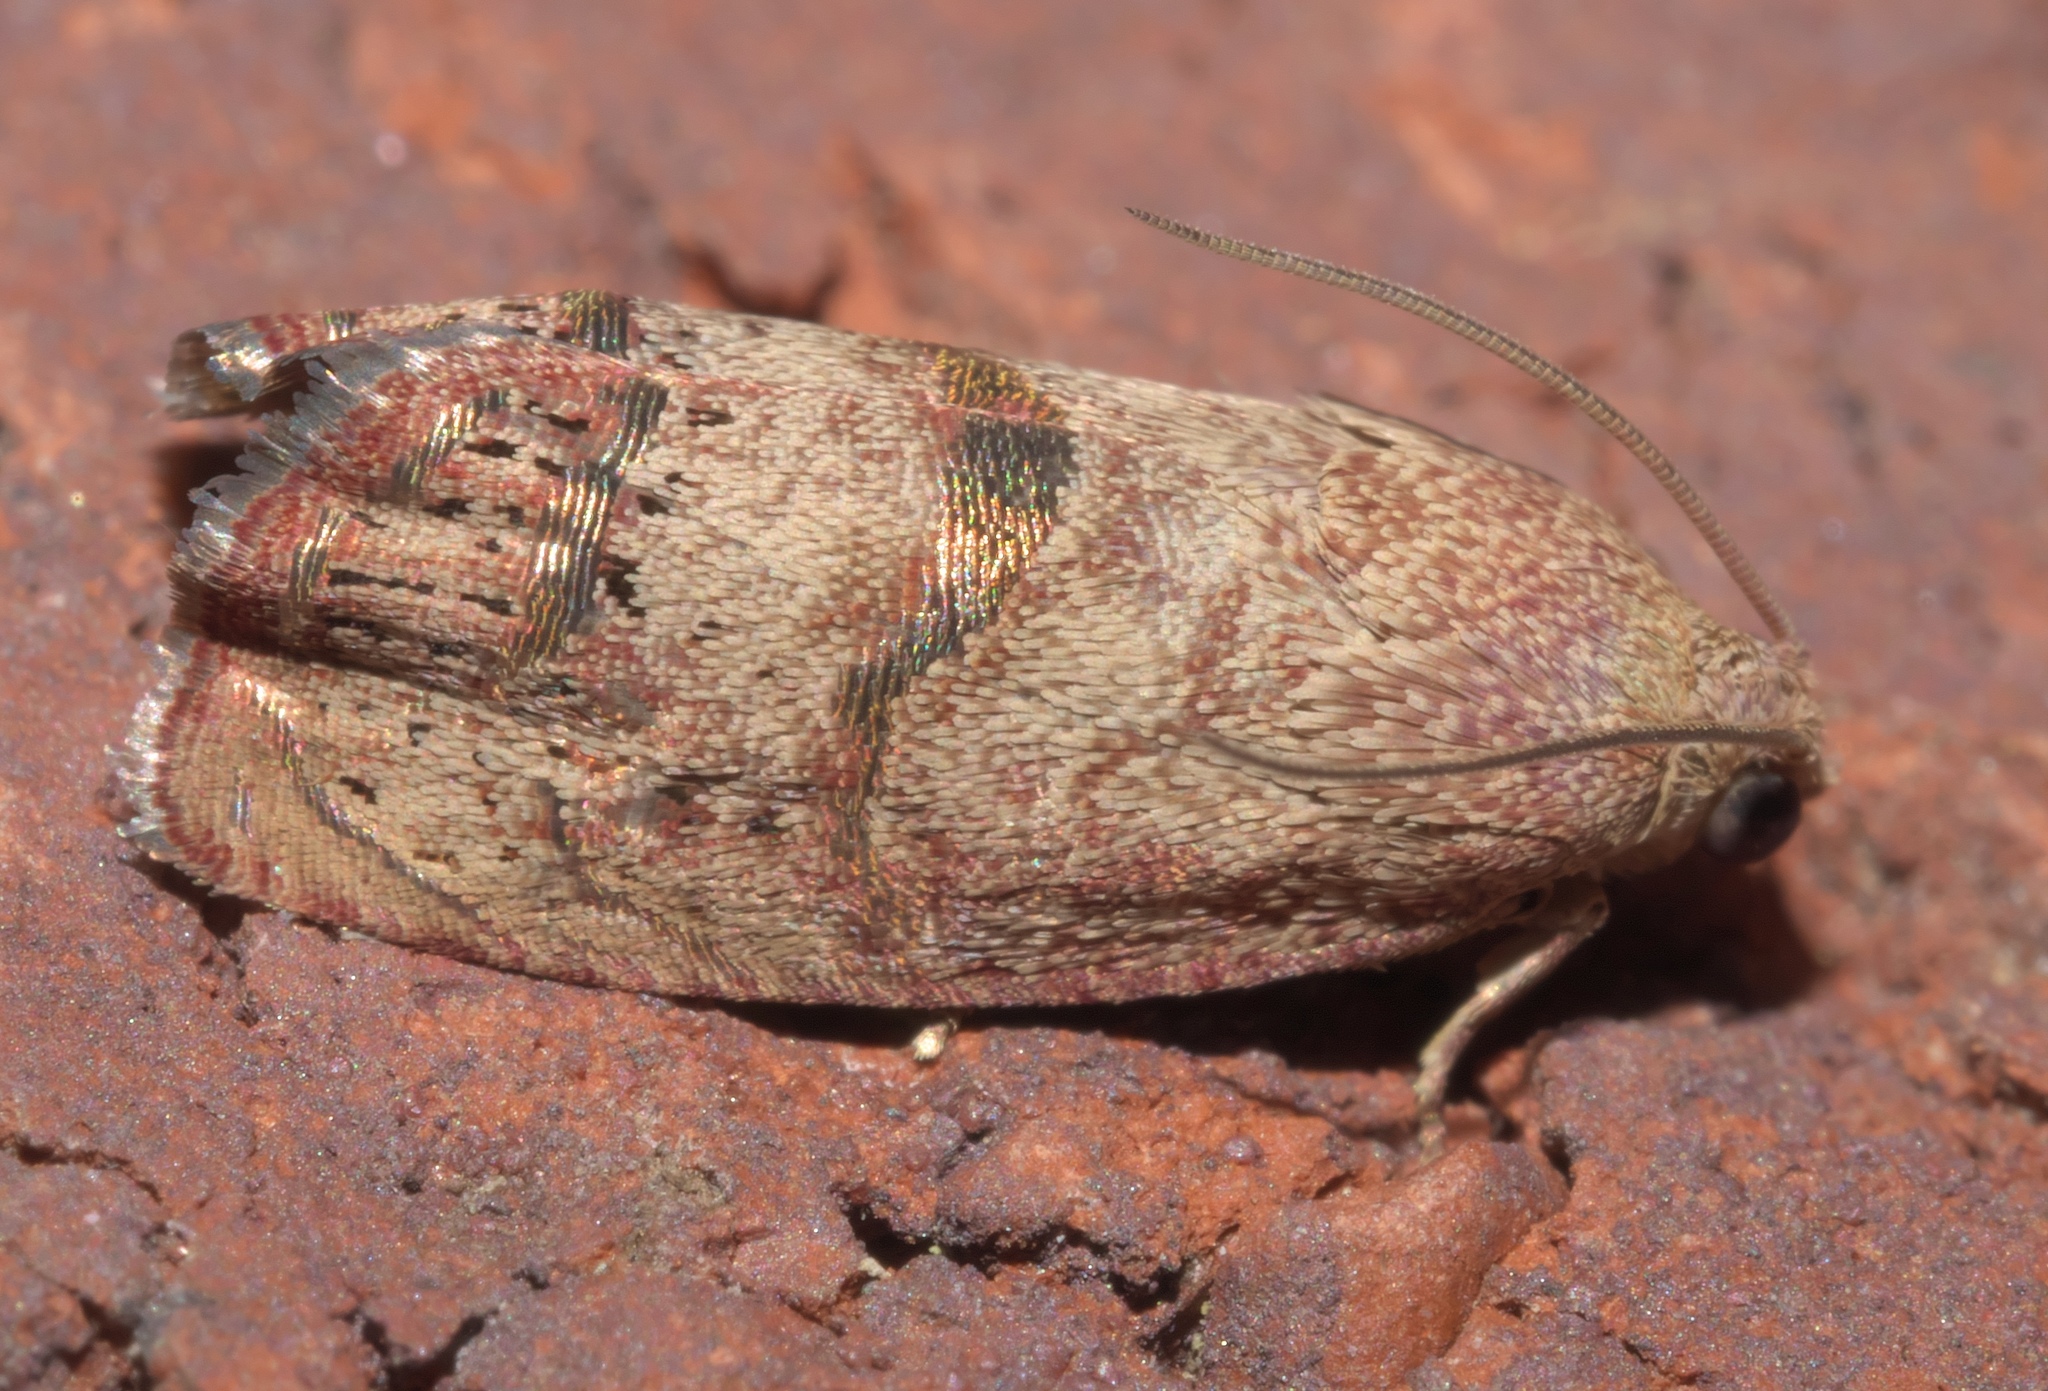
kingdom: Animalia
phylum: Arthropoda
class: Insecta
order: Lepidoptera
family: Tortricidae
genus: Cydia
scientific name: Cydia latiferreana
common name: Filbertworm moth
